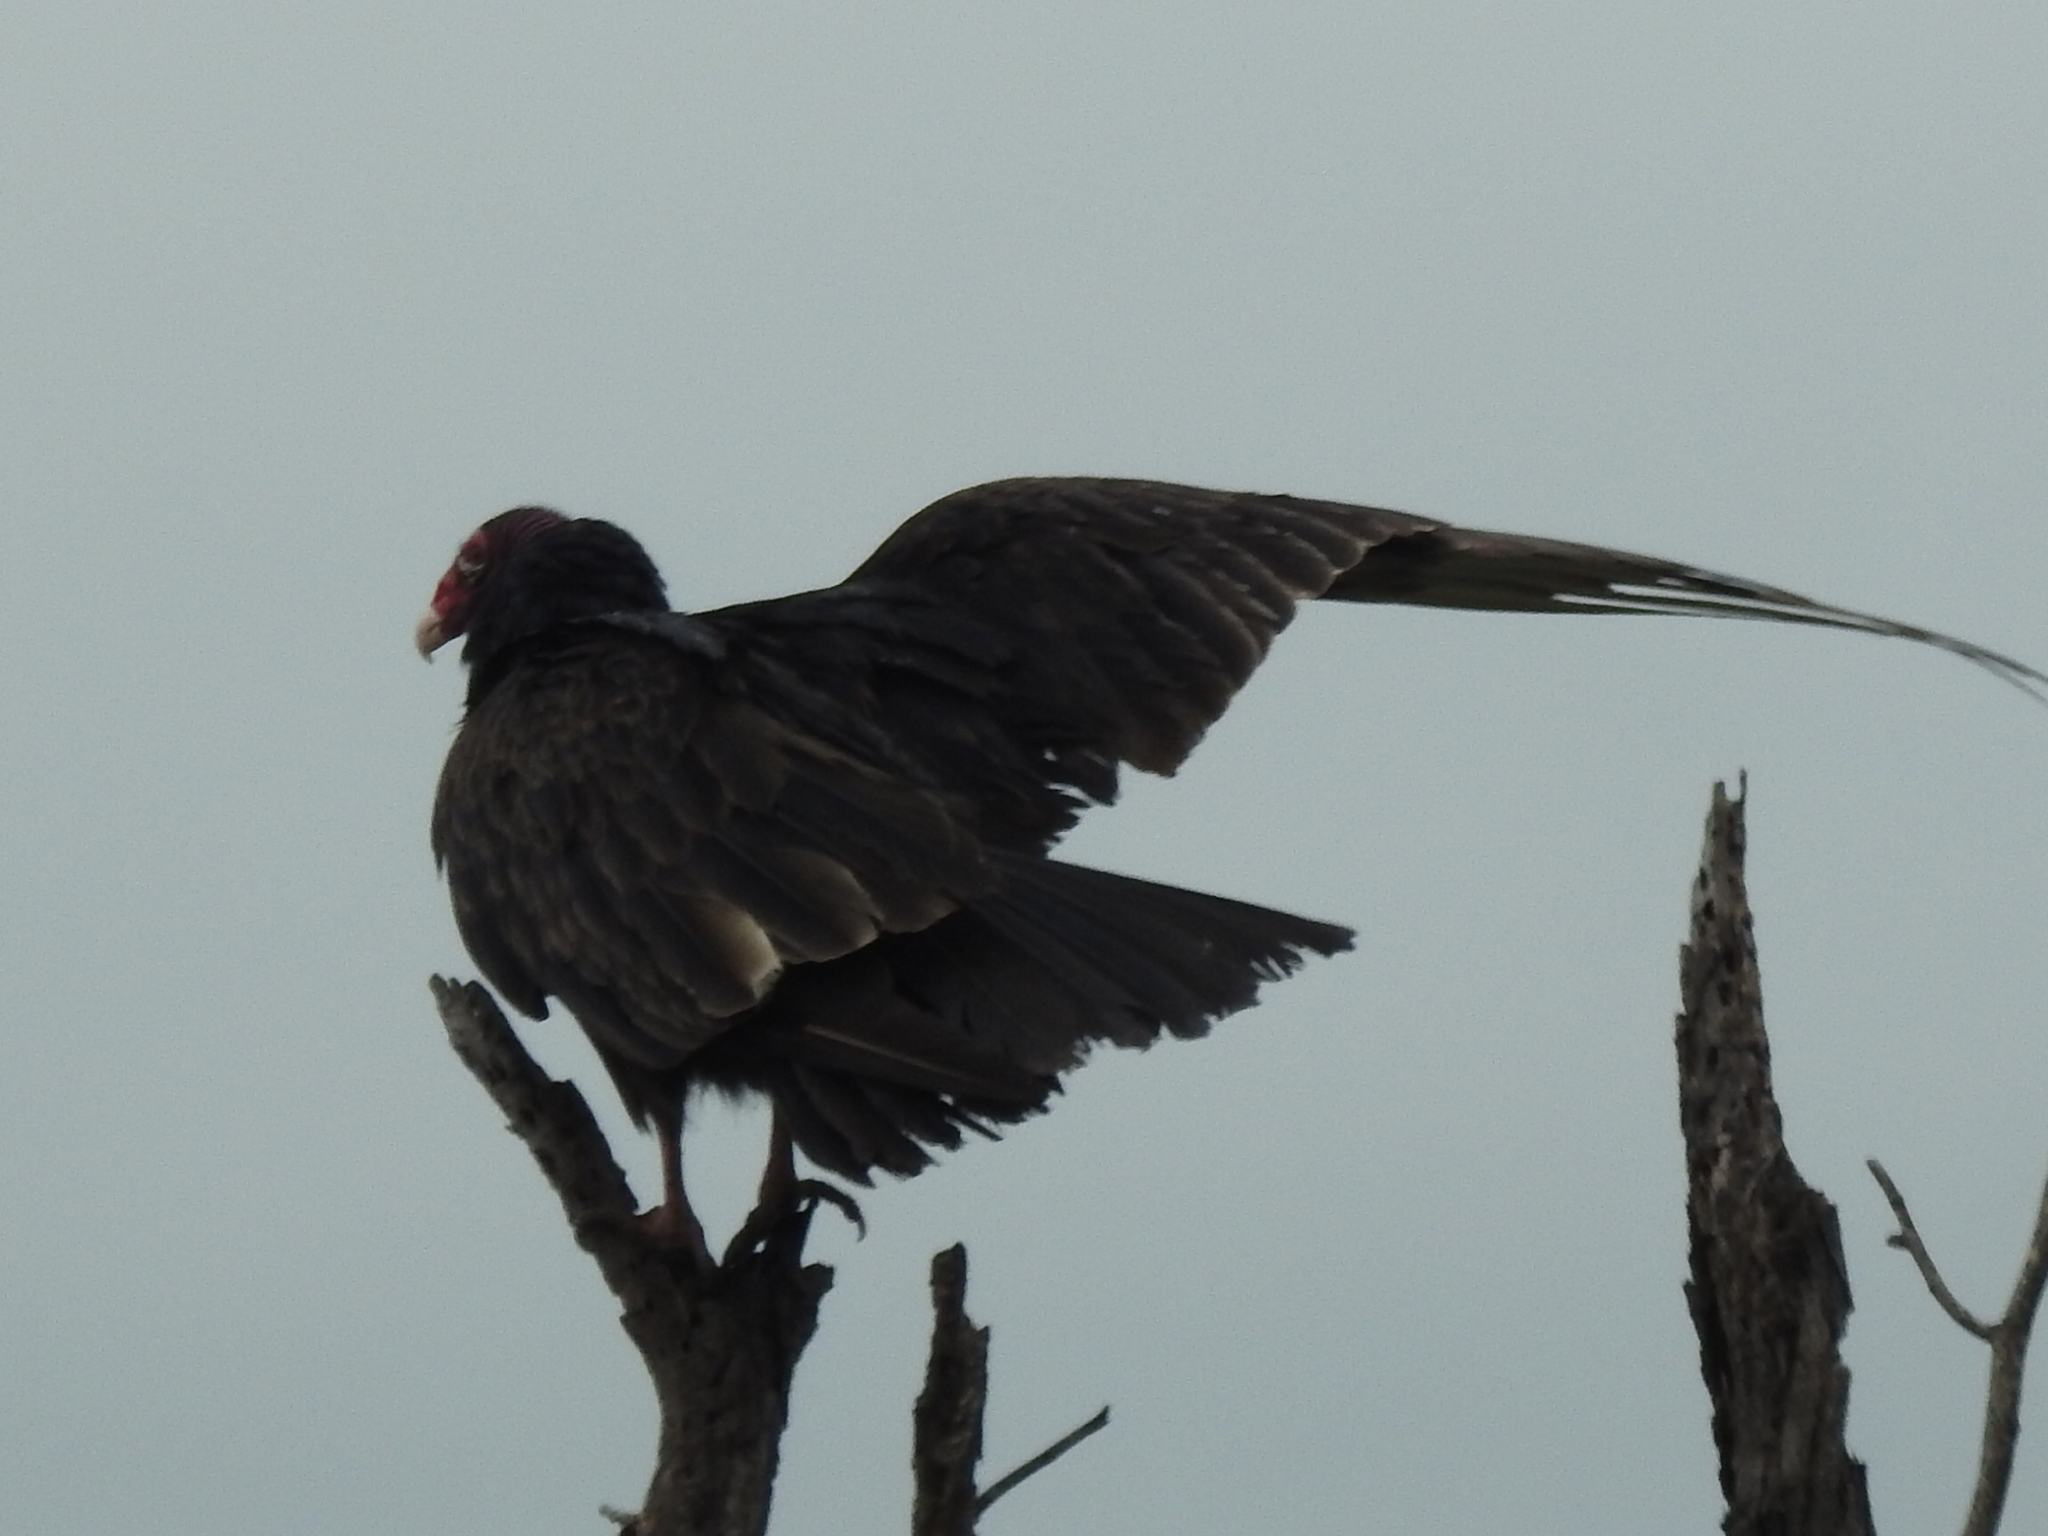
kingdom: Animalia
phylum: Chordata
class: Aves
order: Accipitriformes
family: Cathartidae
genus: Cathartes
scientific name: Cathartes aura
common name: Turkey vulture
